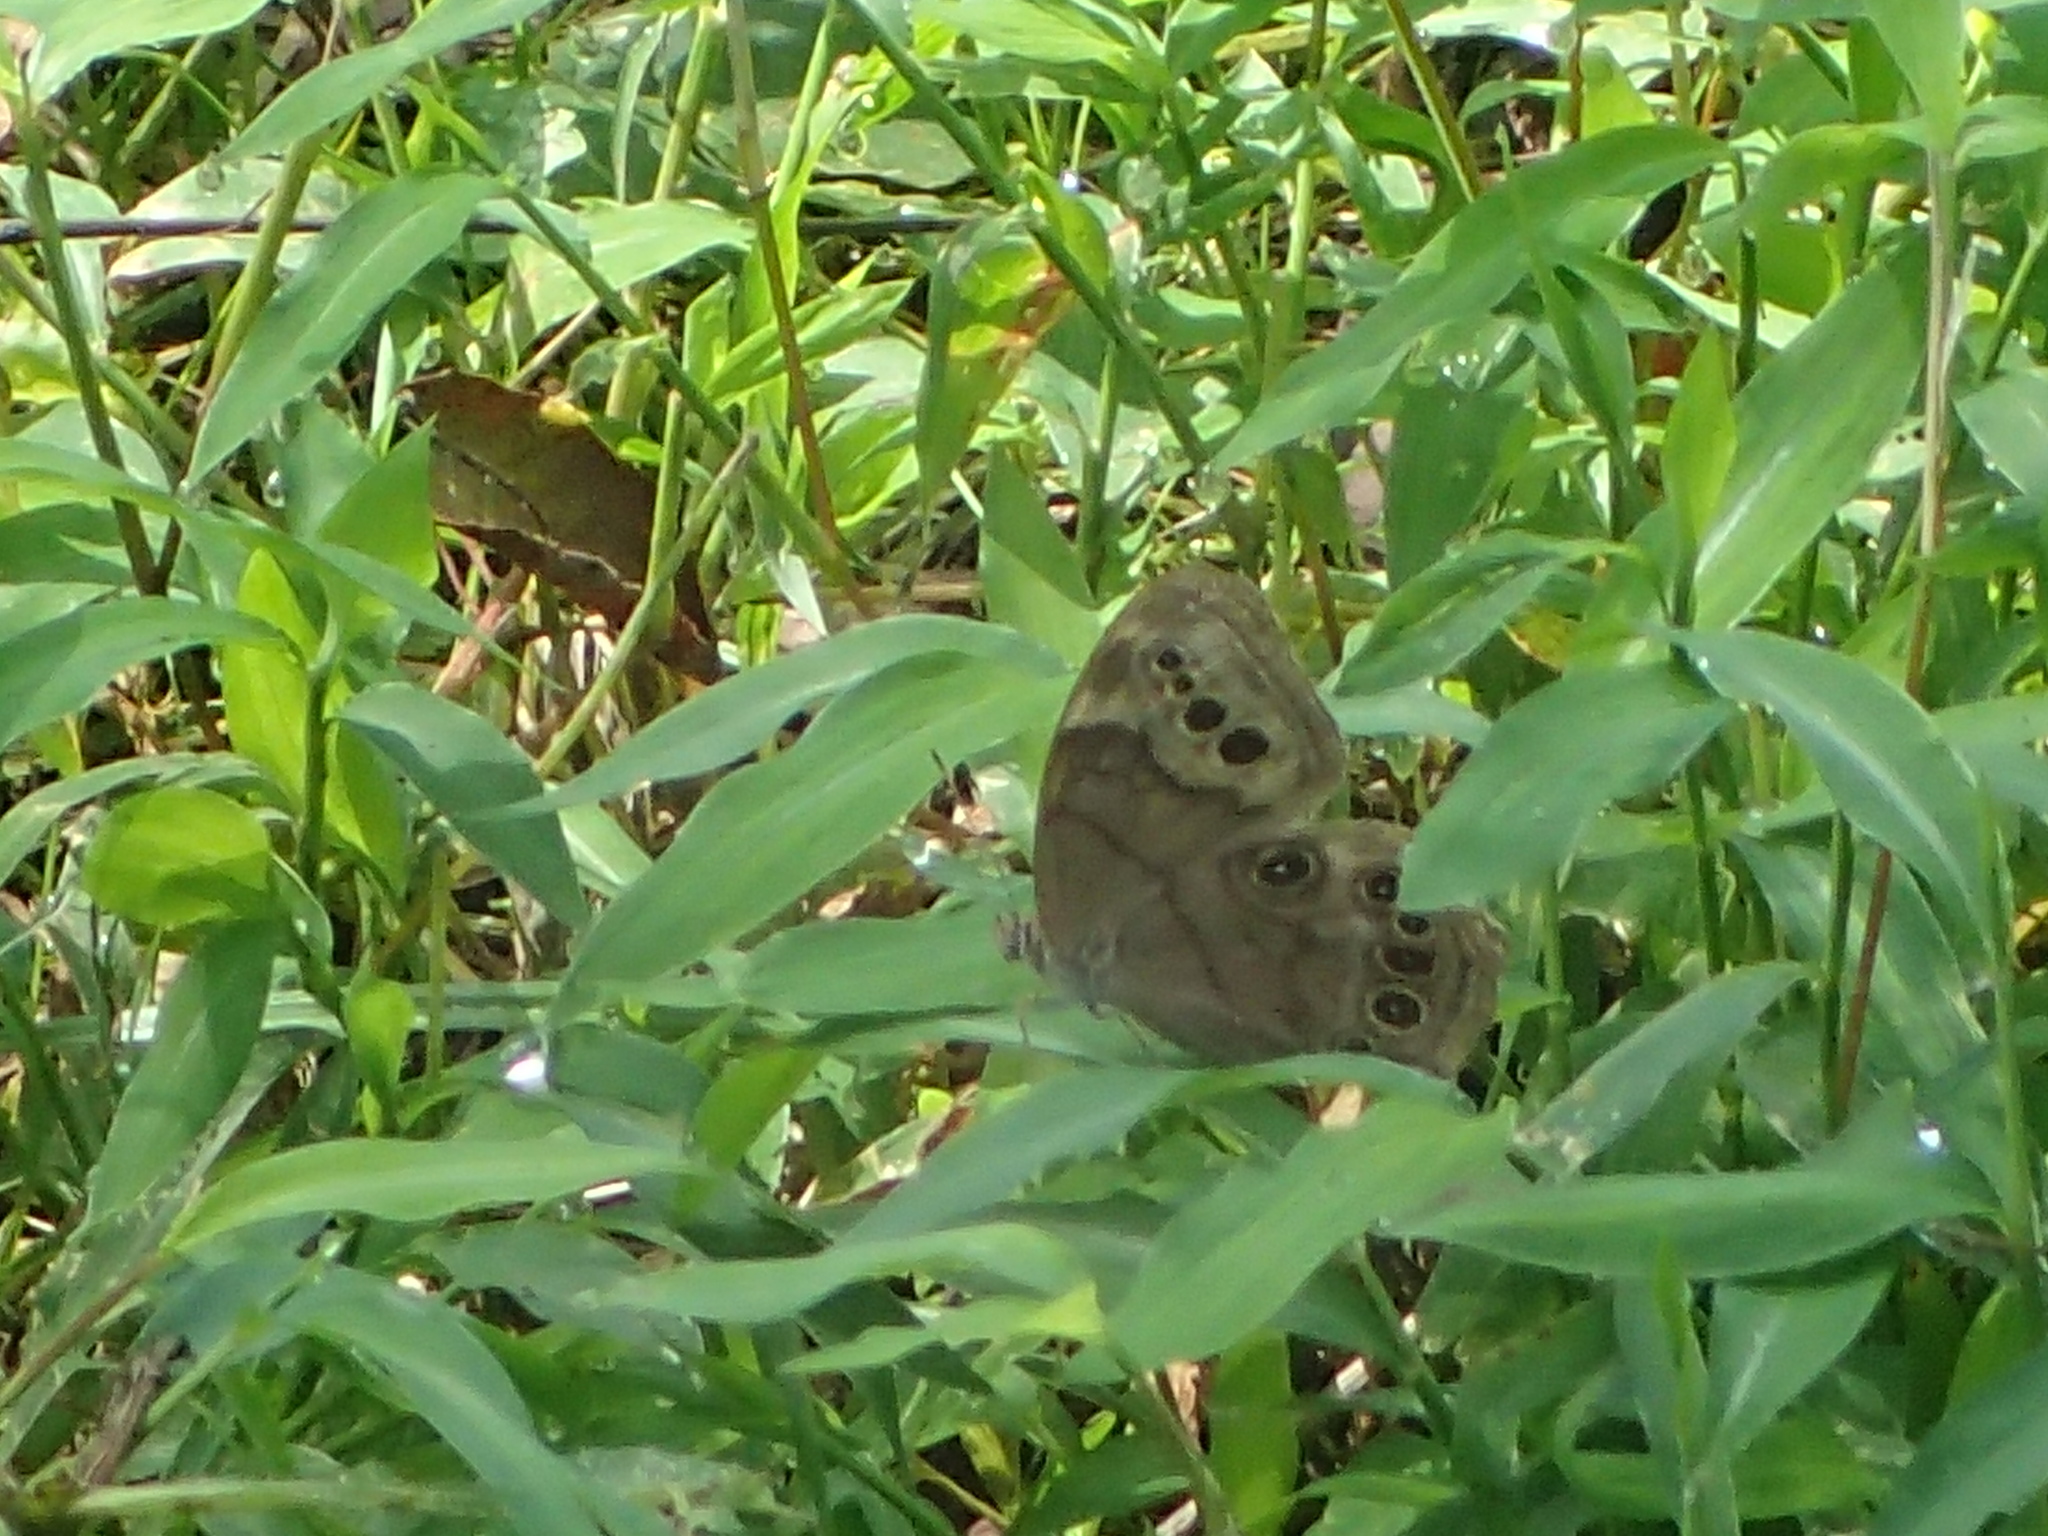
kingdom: Animalia
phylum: Arthropoda
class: Insecta
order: Lepidoptera
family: Nymphalidae
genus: Lethe
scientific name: Lethe anthedon
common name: Northern pearly-eye
